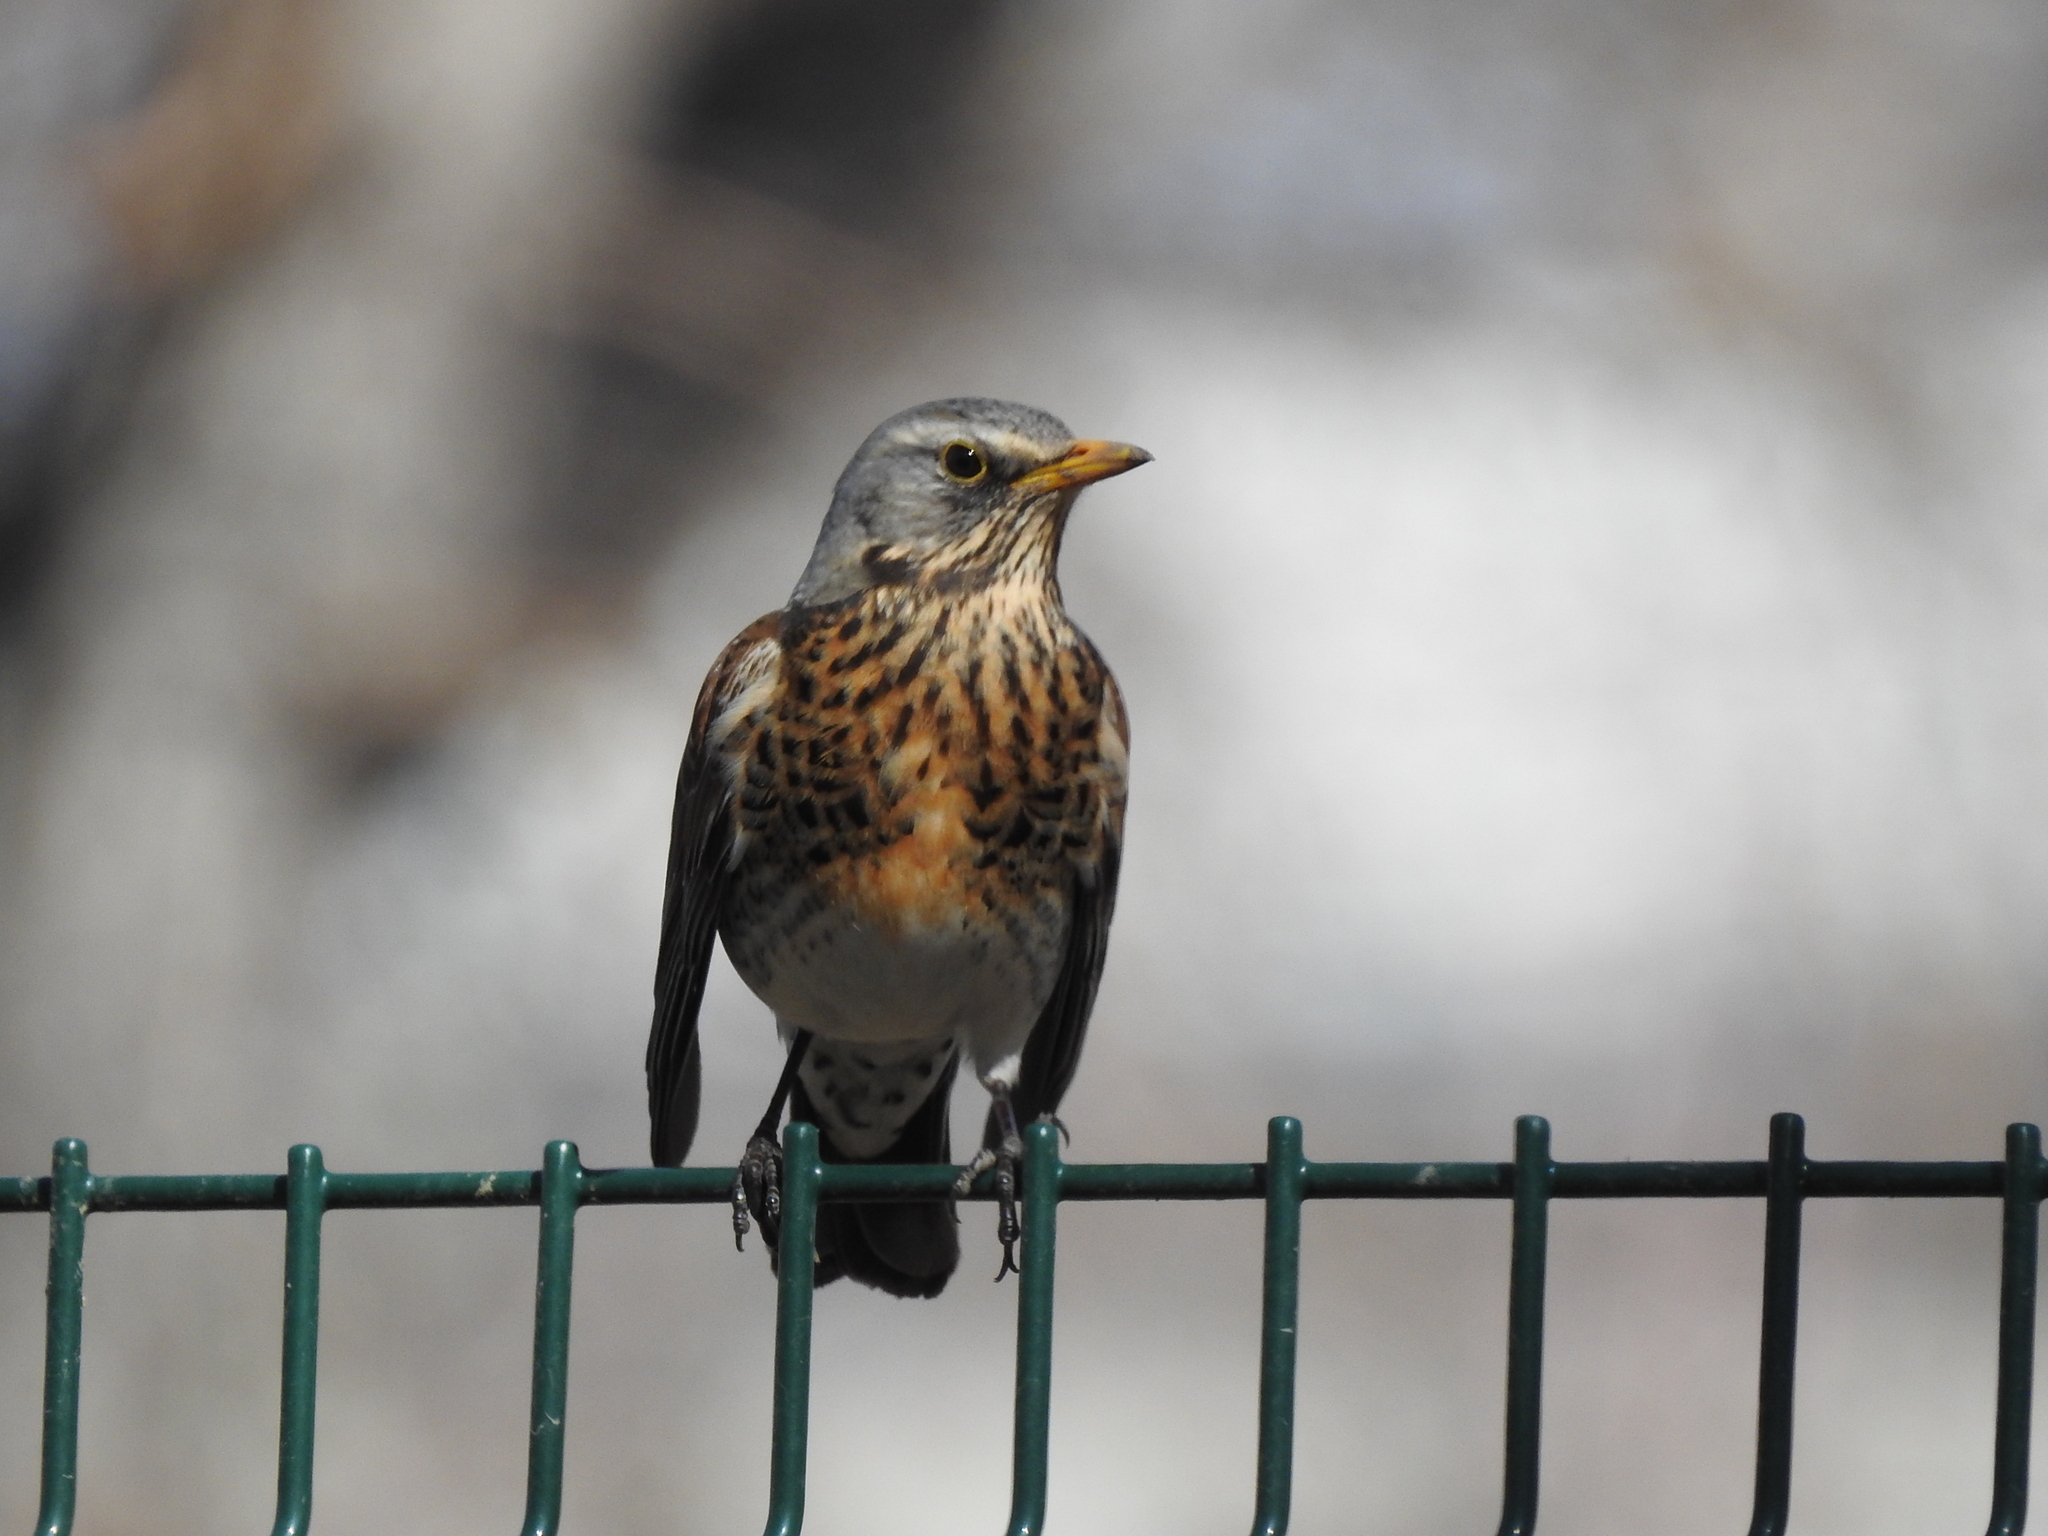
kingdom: Animalia
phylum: Chordata
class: Aves
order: Passeriformes
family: Turdidae
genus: Turdus
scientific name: Turdus pilaris
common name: Fieldfare
